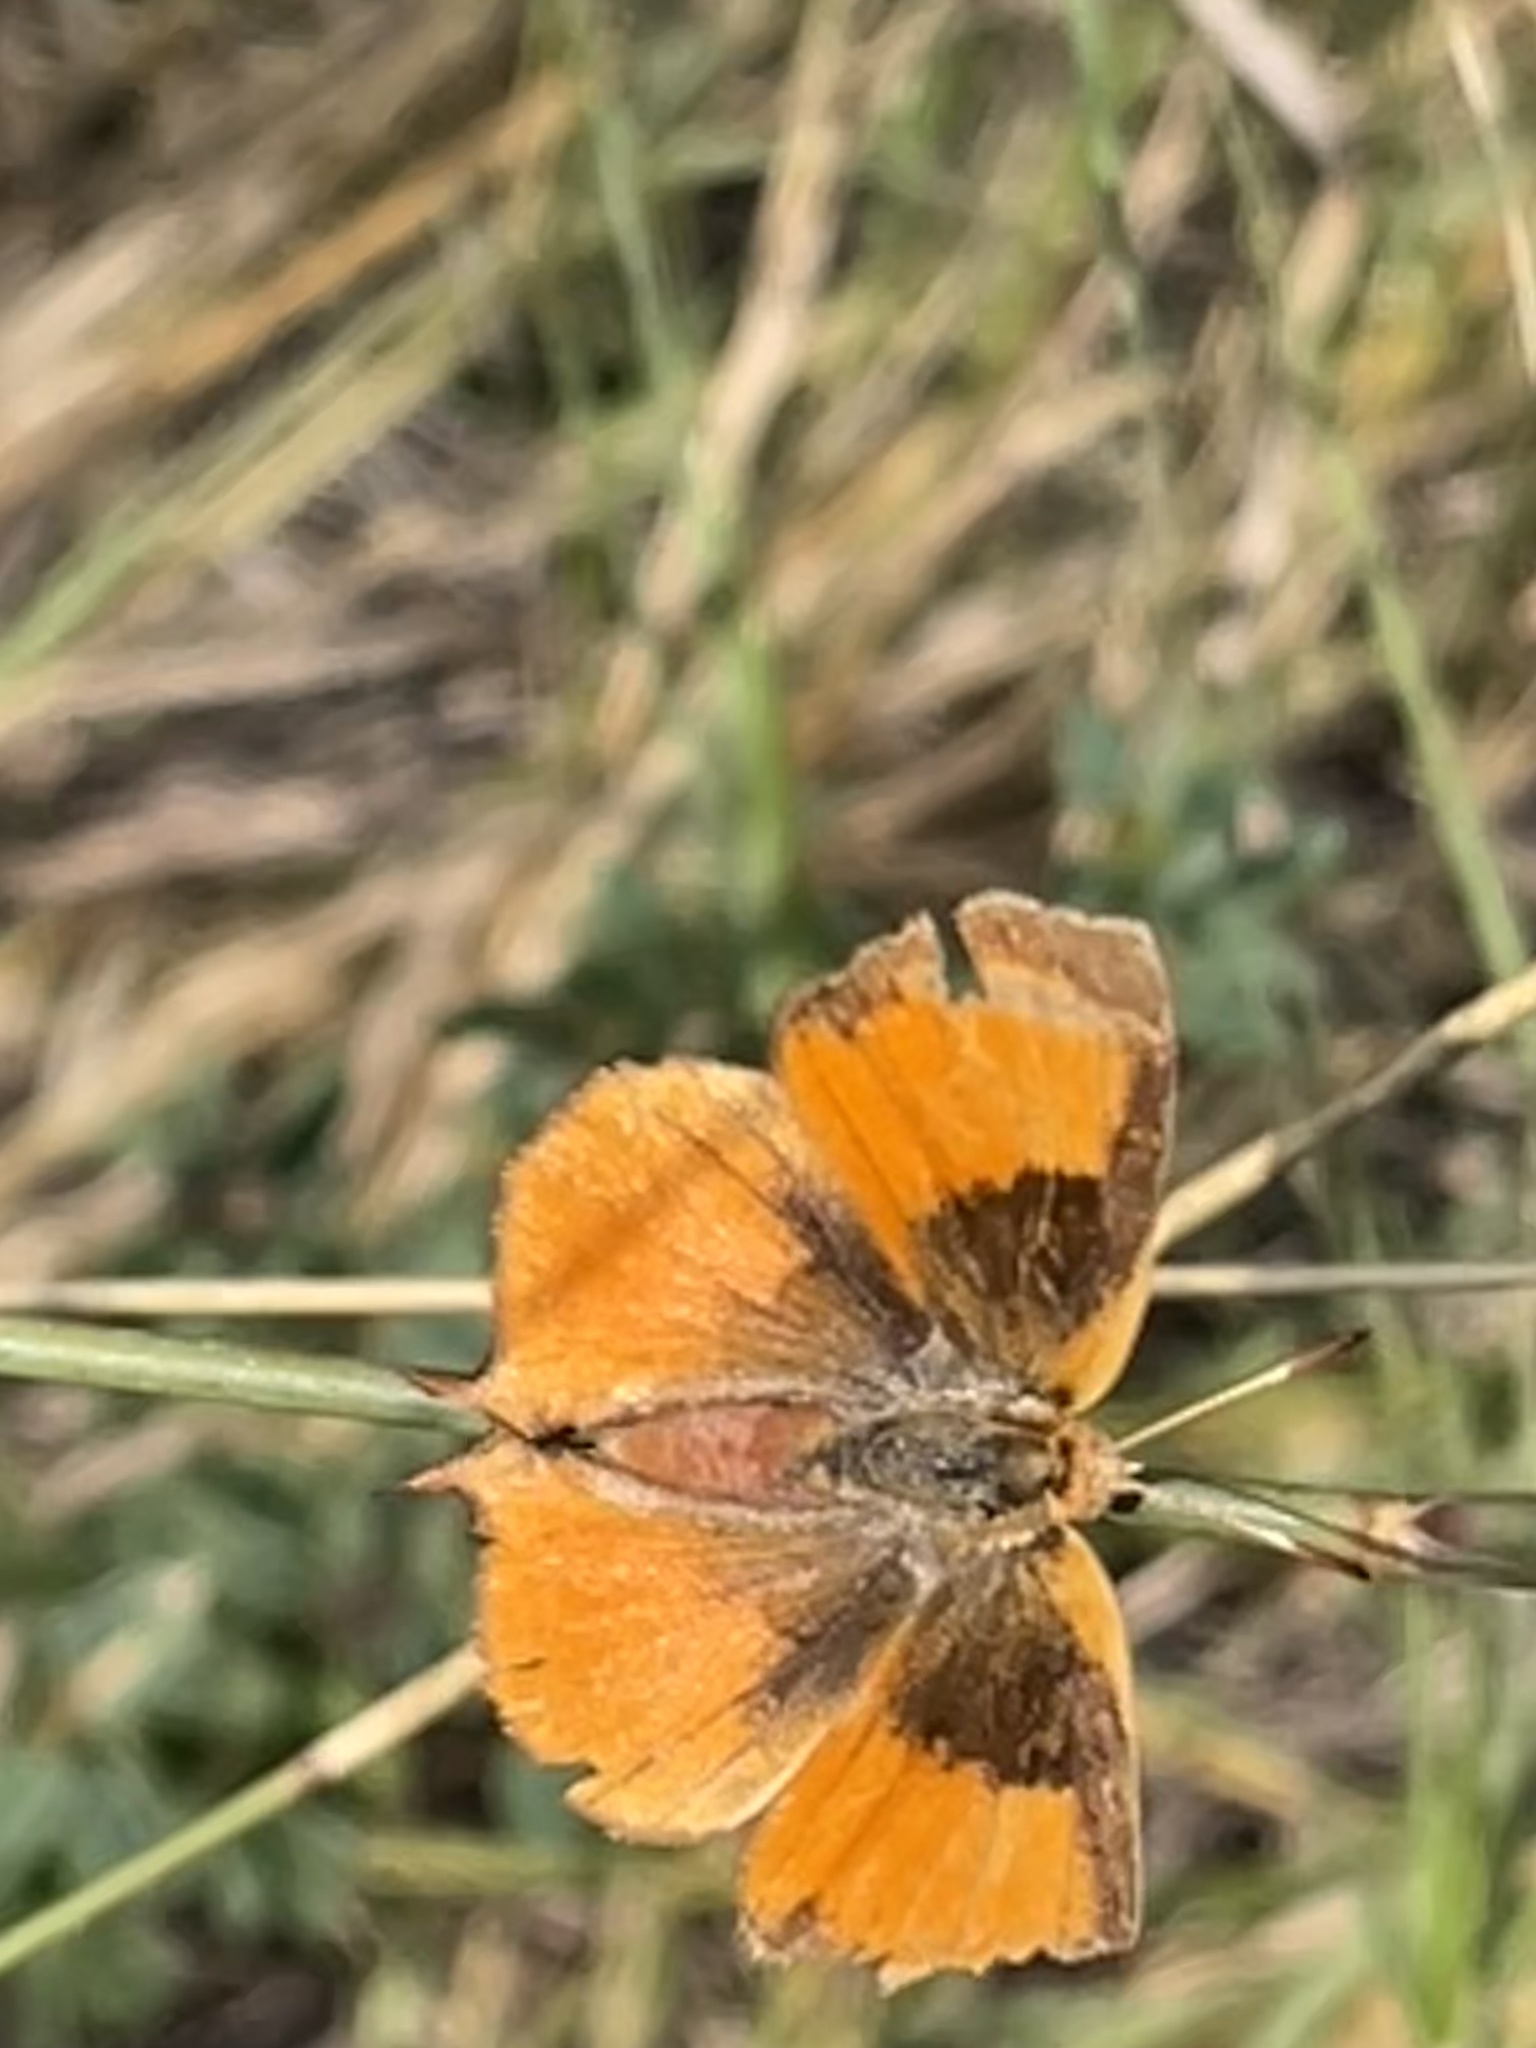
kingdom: Animalia
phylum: Arthropoda
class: Insecta
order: Lepidoptera
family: Lycaenidae
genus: Axiocerses
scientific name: Axiocerses amanga
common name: Bush scarlet
